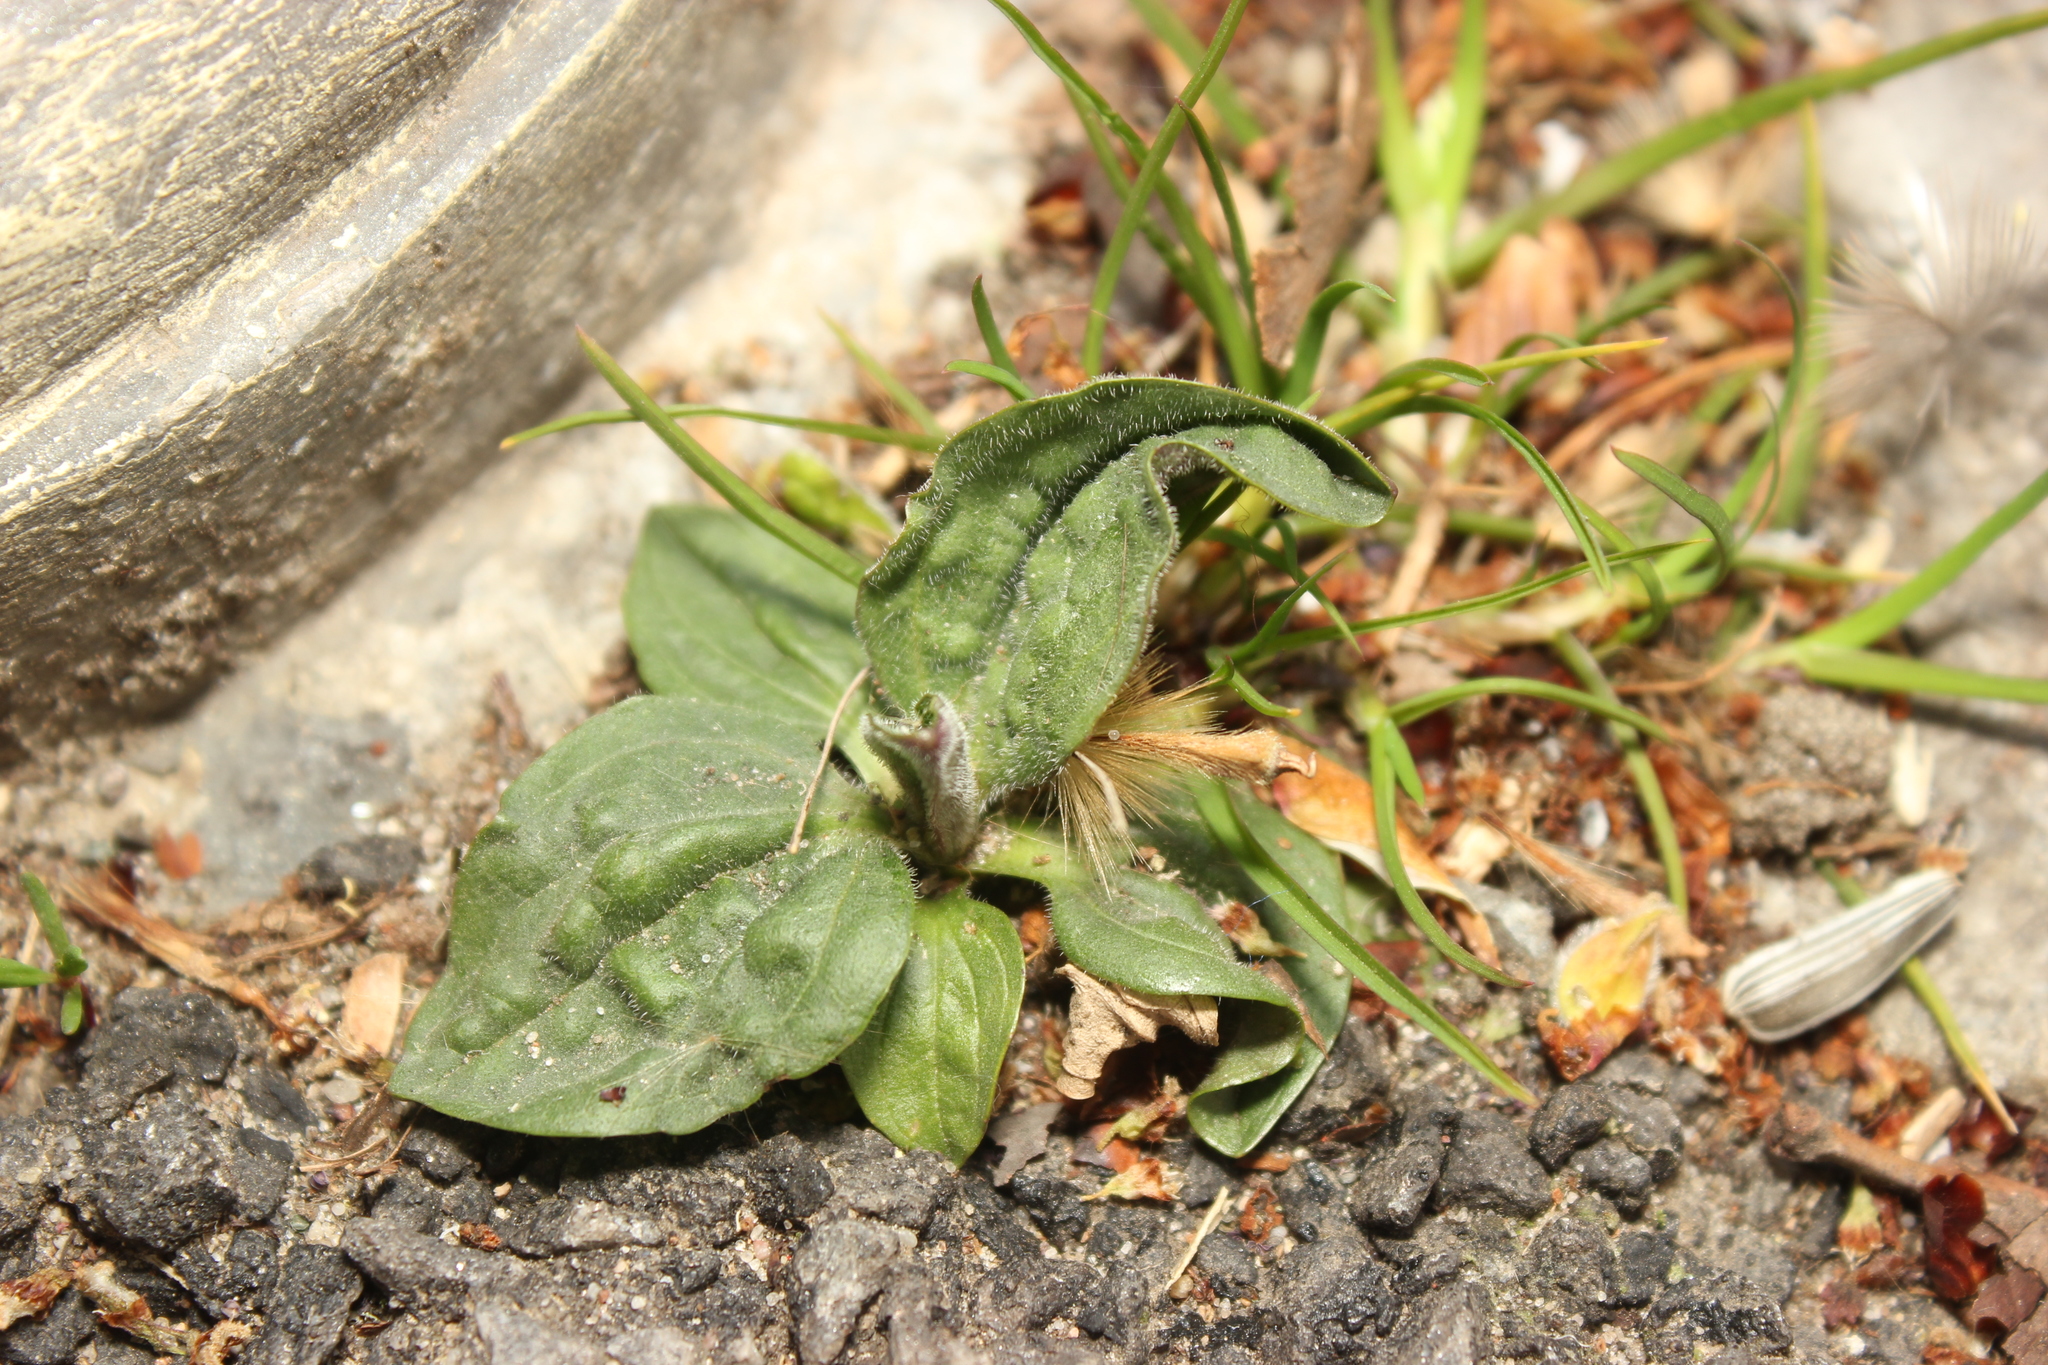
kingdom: Plantae
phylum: Tracheophyta
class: Magnoliopsida
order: Lamiales
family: Plantaginaceae
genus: Plantago
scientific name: Plantago major
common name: Common plantain
